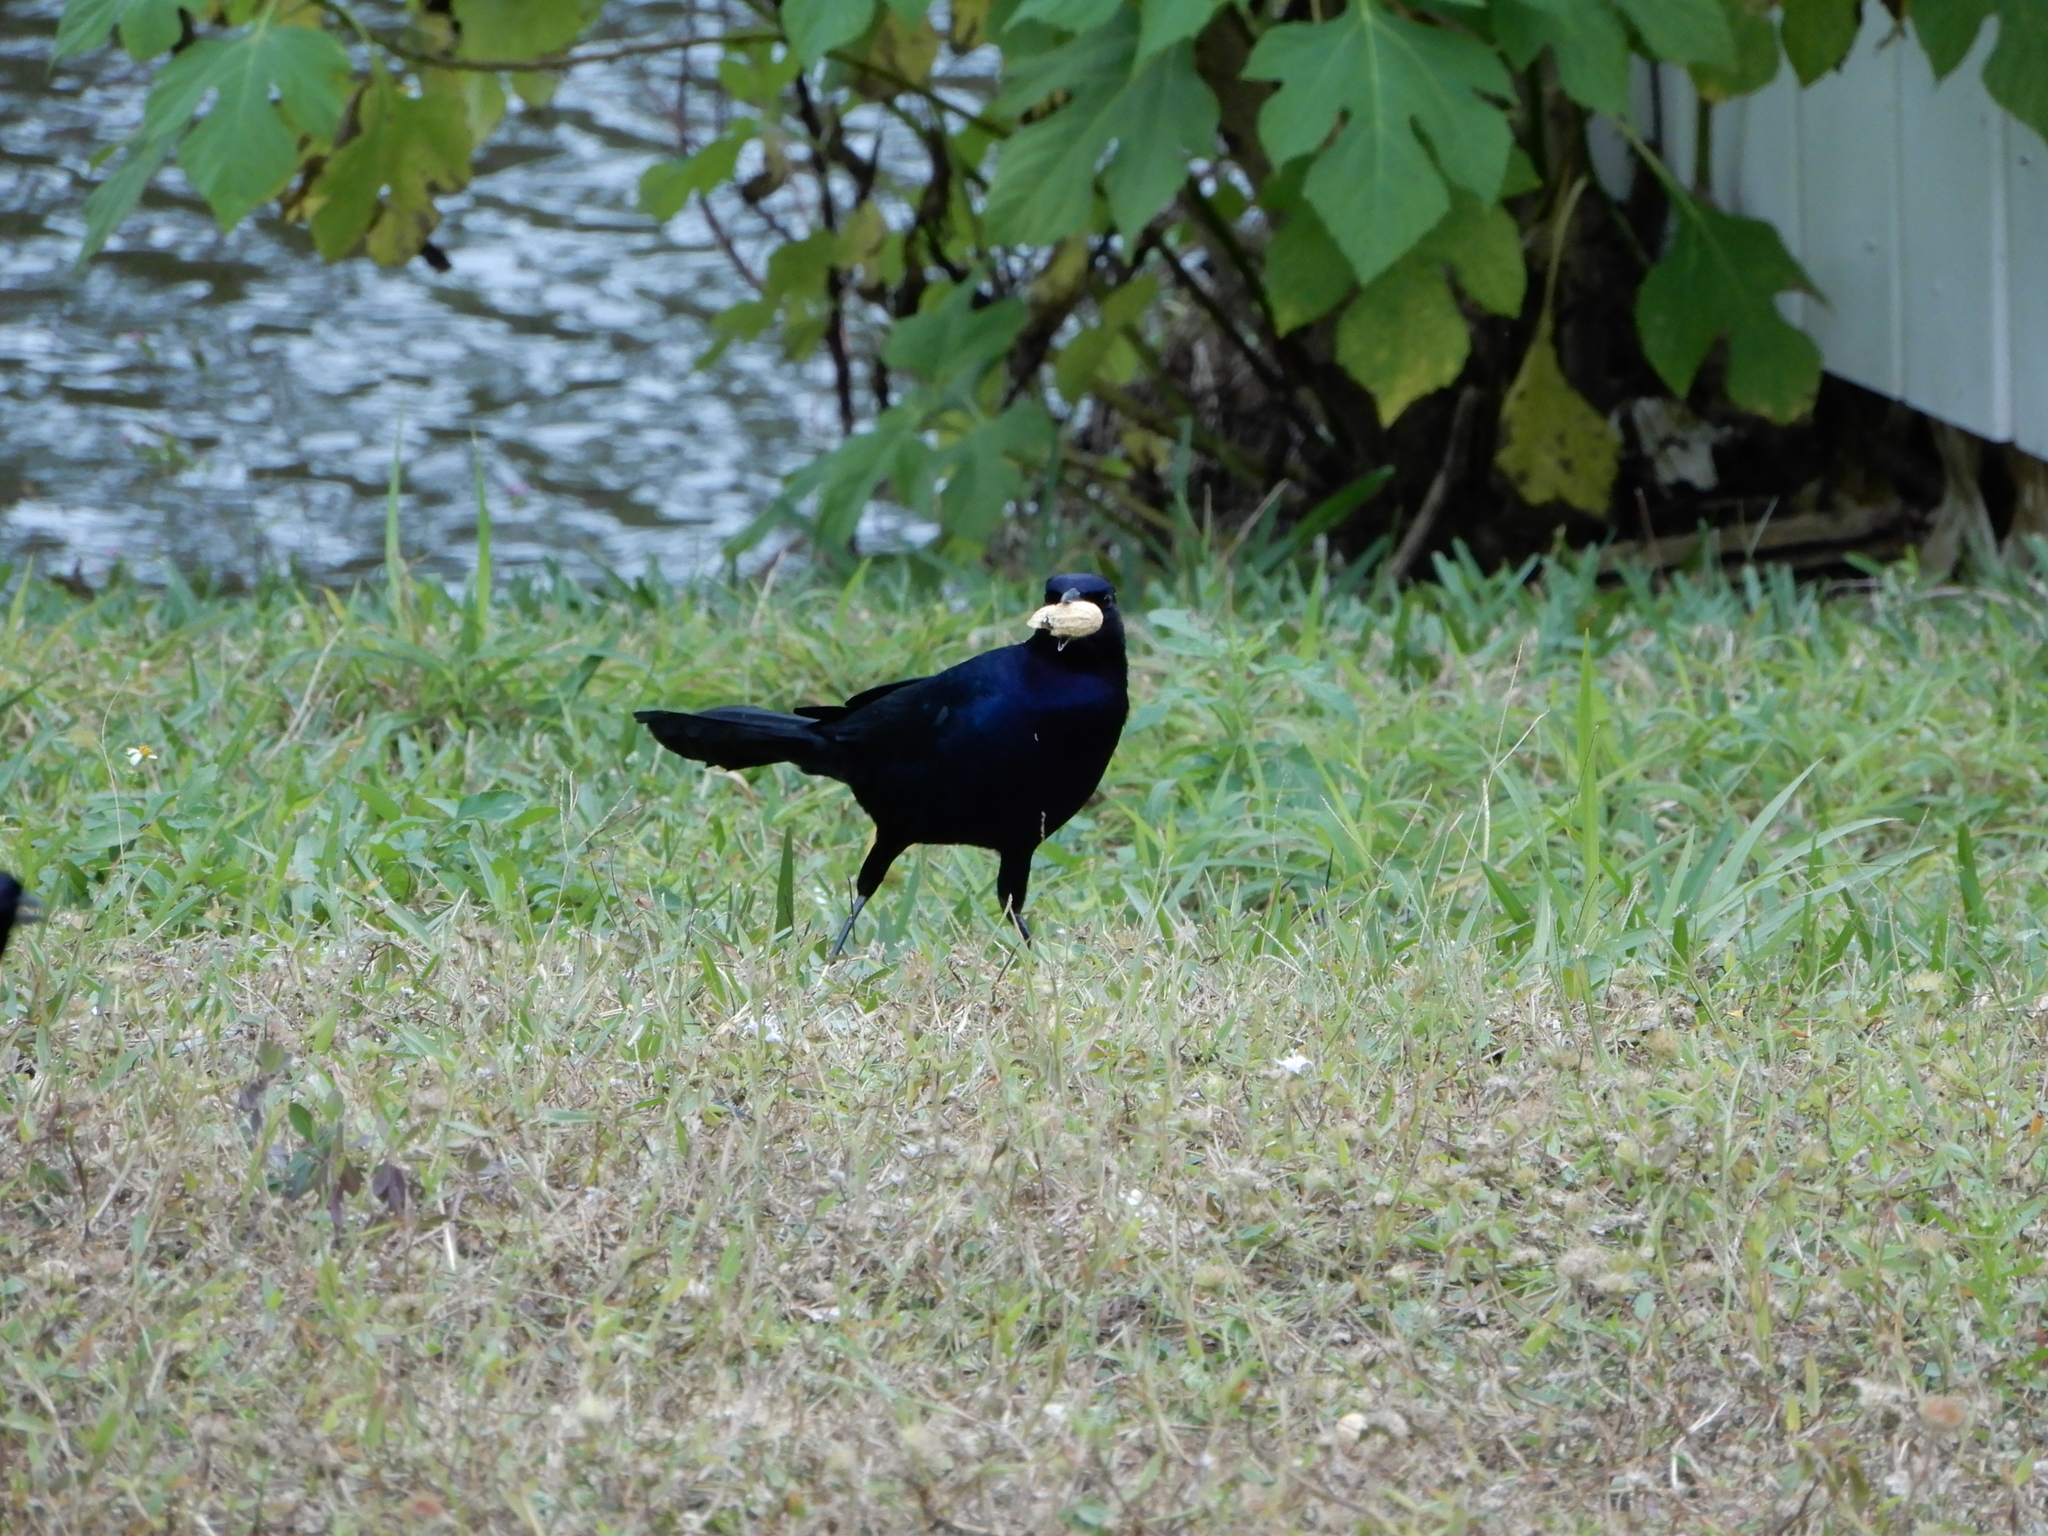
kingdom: Animalia
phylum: Chordata
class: Aves
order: Passeriformes
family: Icteridae
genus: Quiscalus
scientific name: Quiscalus major
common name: Boat-tailed grackle
